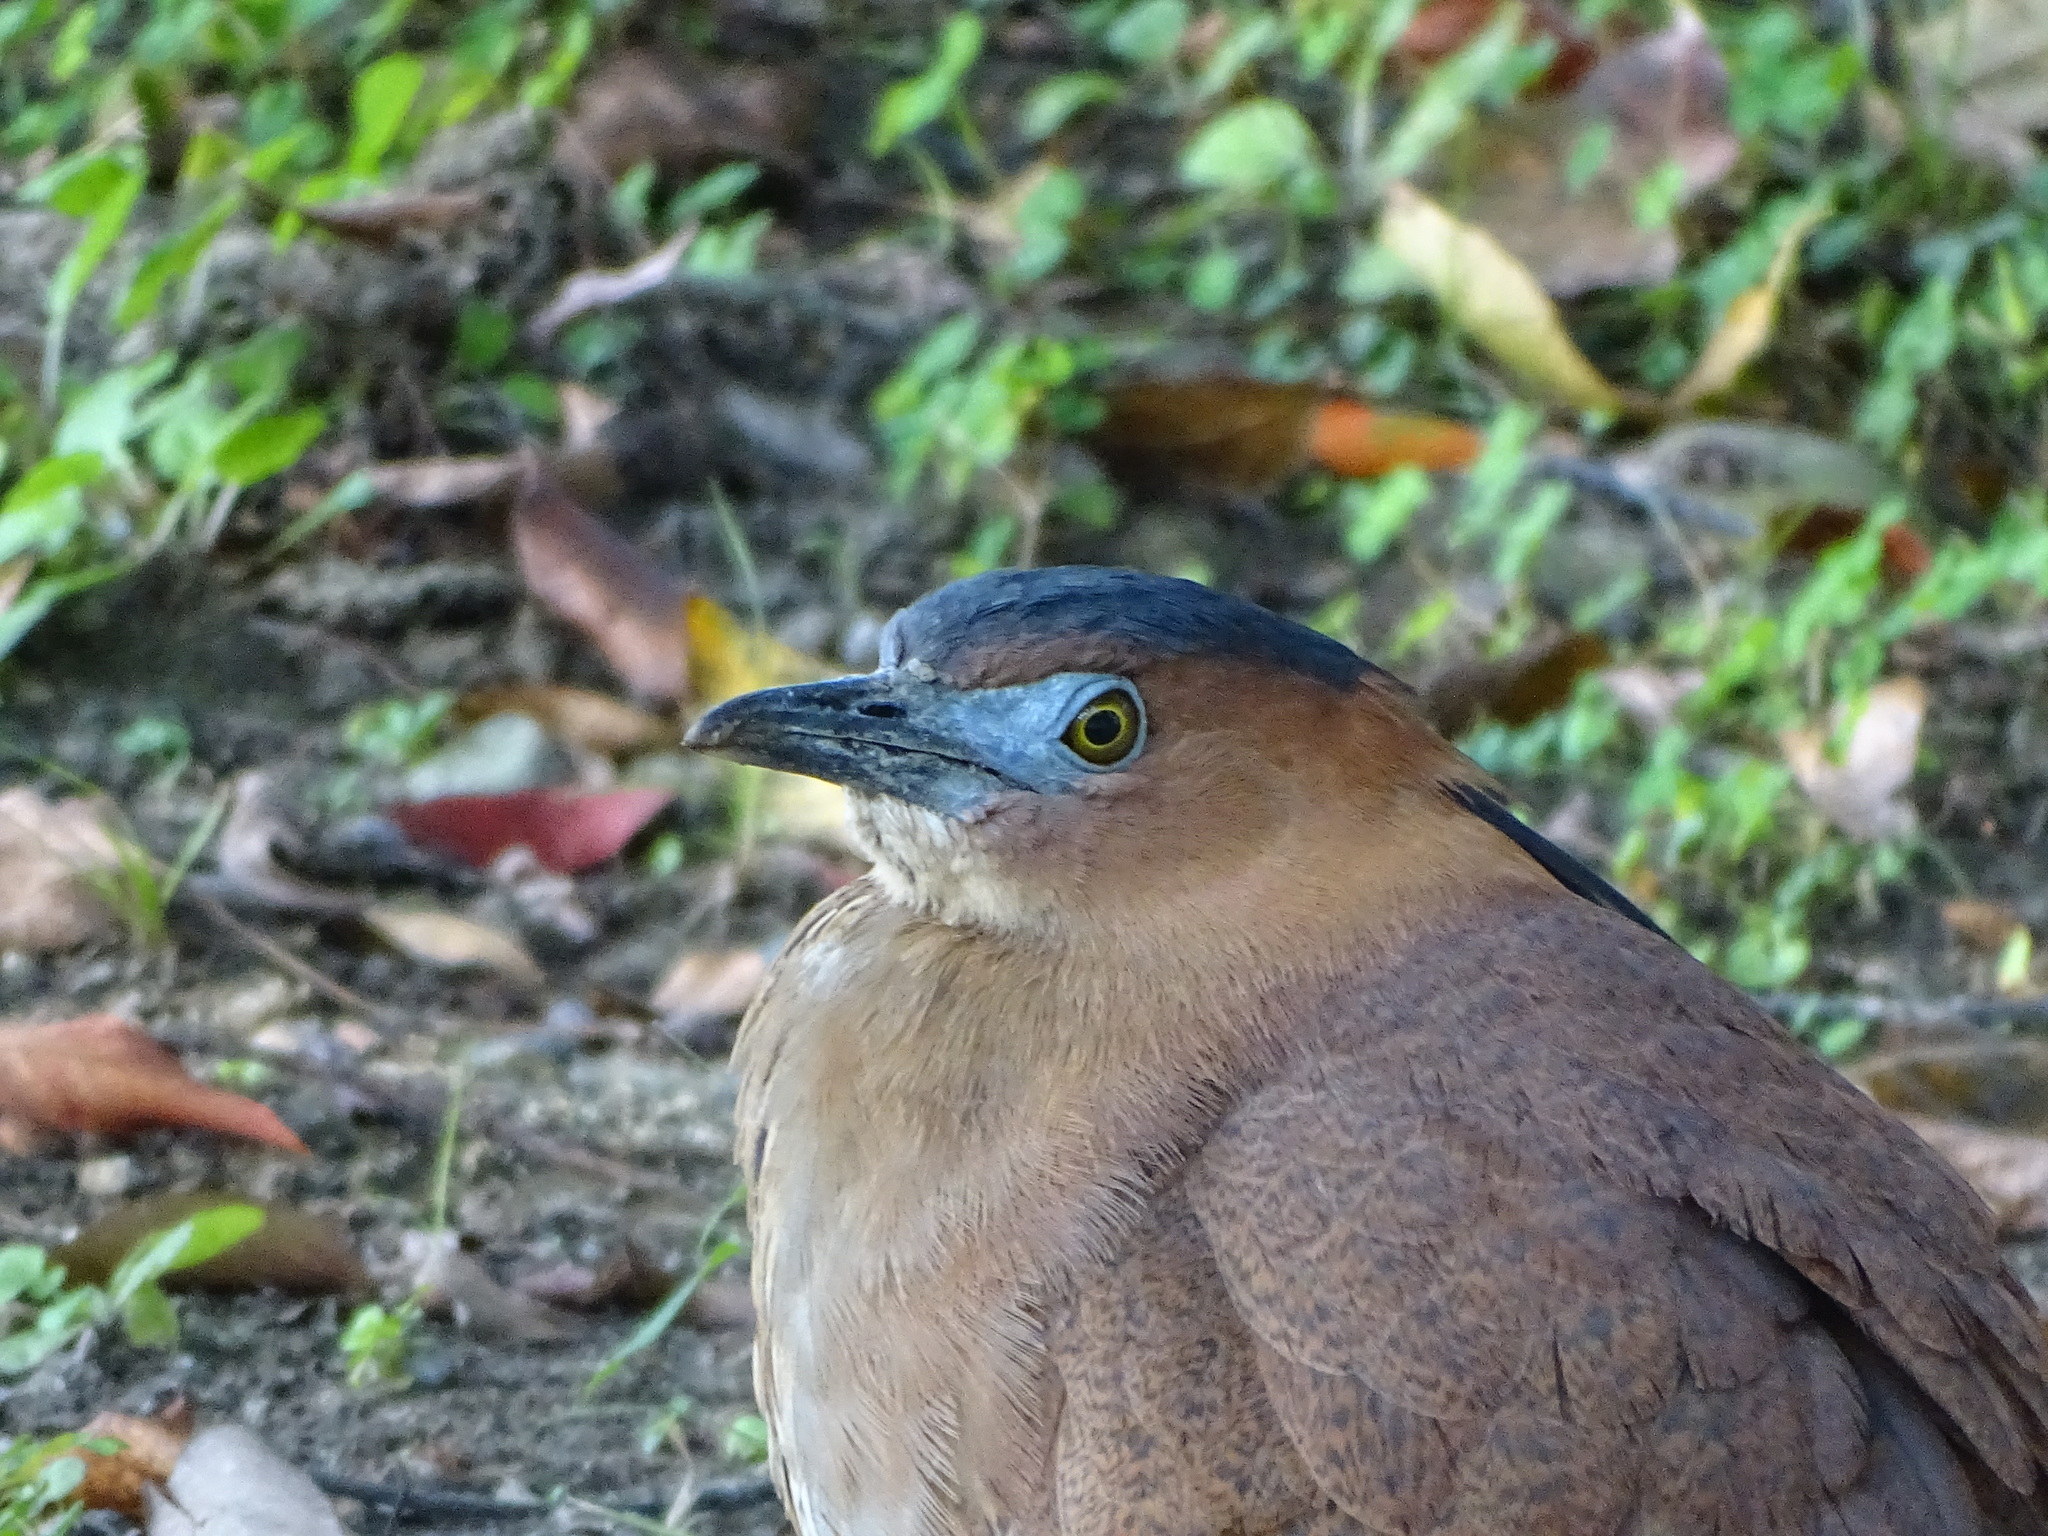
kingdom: Animalia
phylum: Chordata
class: Aves
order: Pelecaniformes
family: Ardeidae
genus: Gorsachius
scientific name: Gorsachius melanolophus
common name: Malayan night heron
